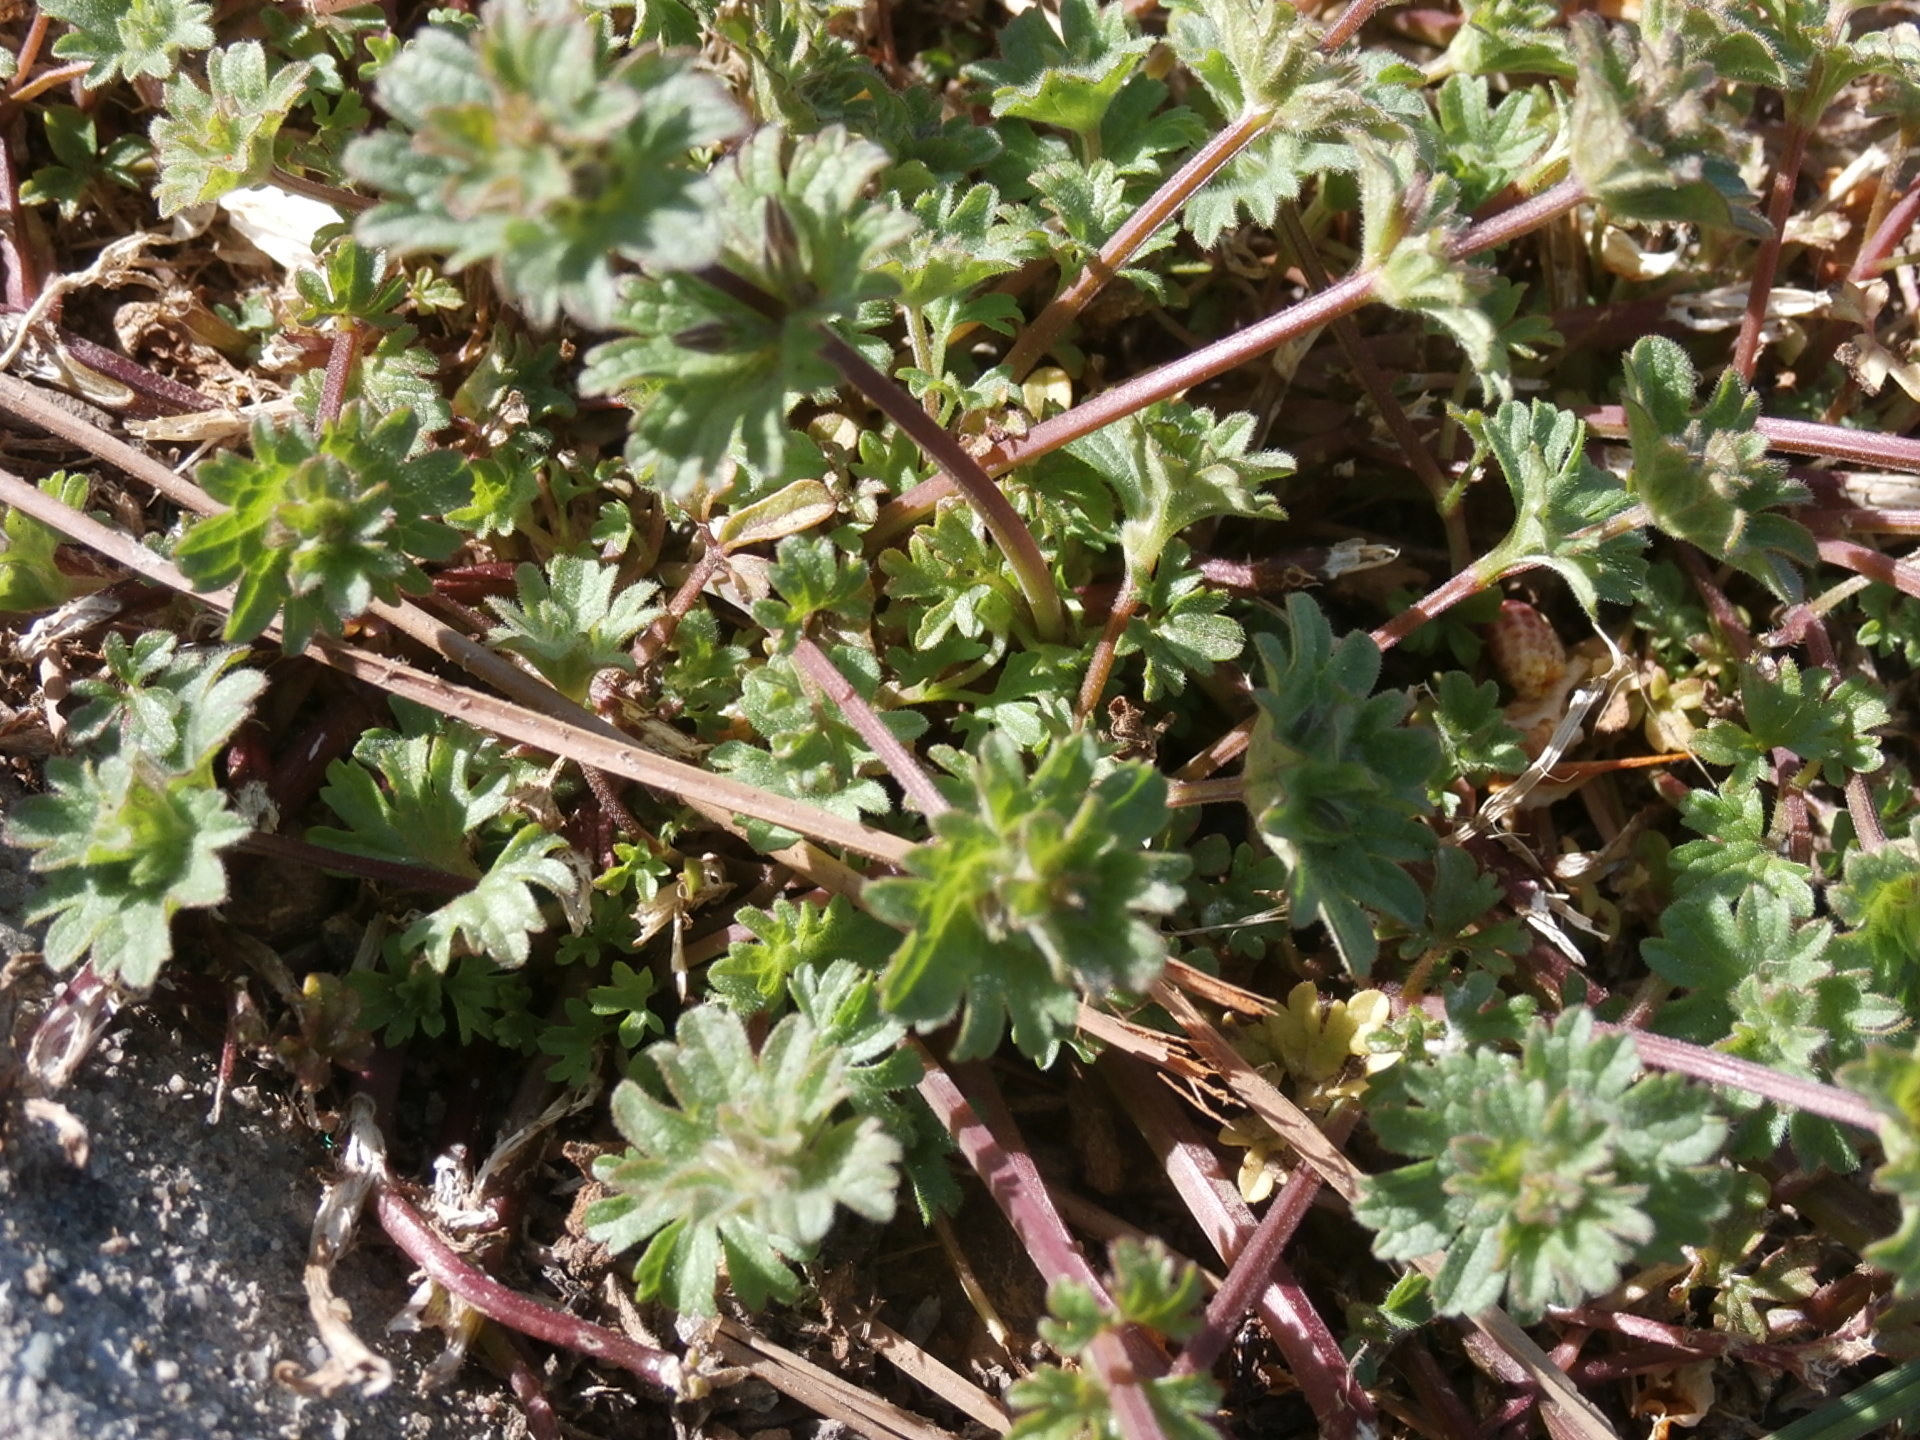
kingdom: Plantae
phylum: Tracheophyta
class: Magnoliopsida
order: Lamiales
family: Lamiaceae
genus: Lamium
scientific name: Lamium amplexicaule
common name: Henbit dead-nettle
